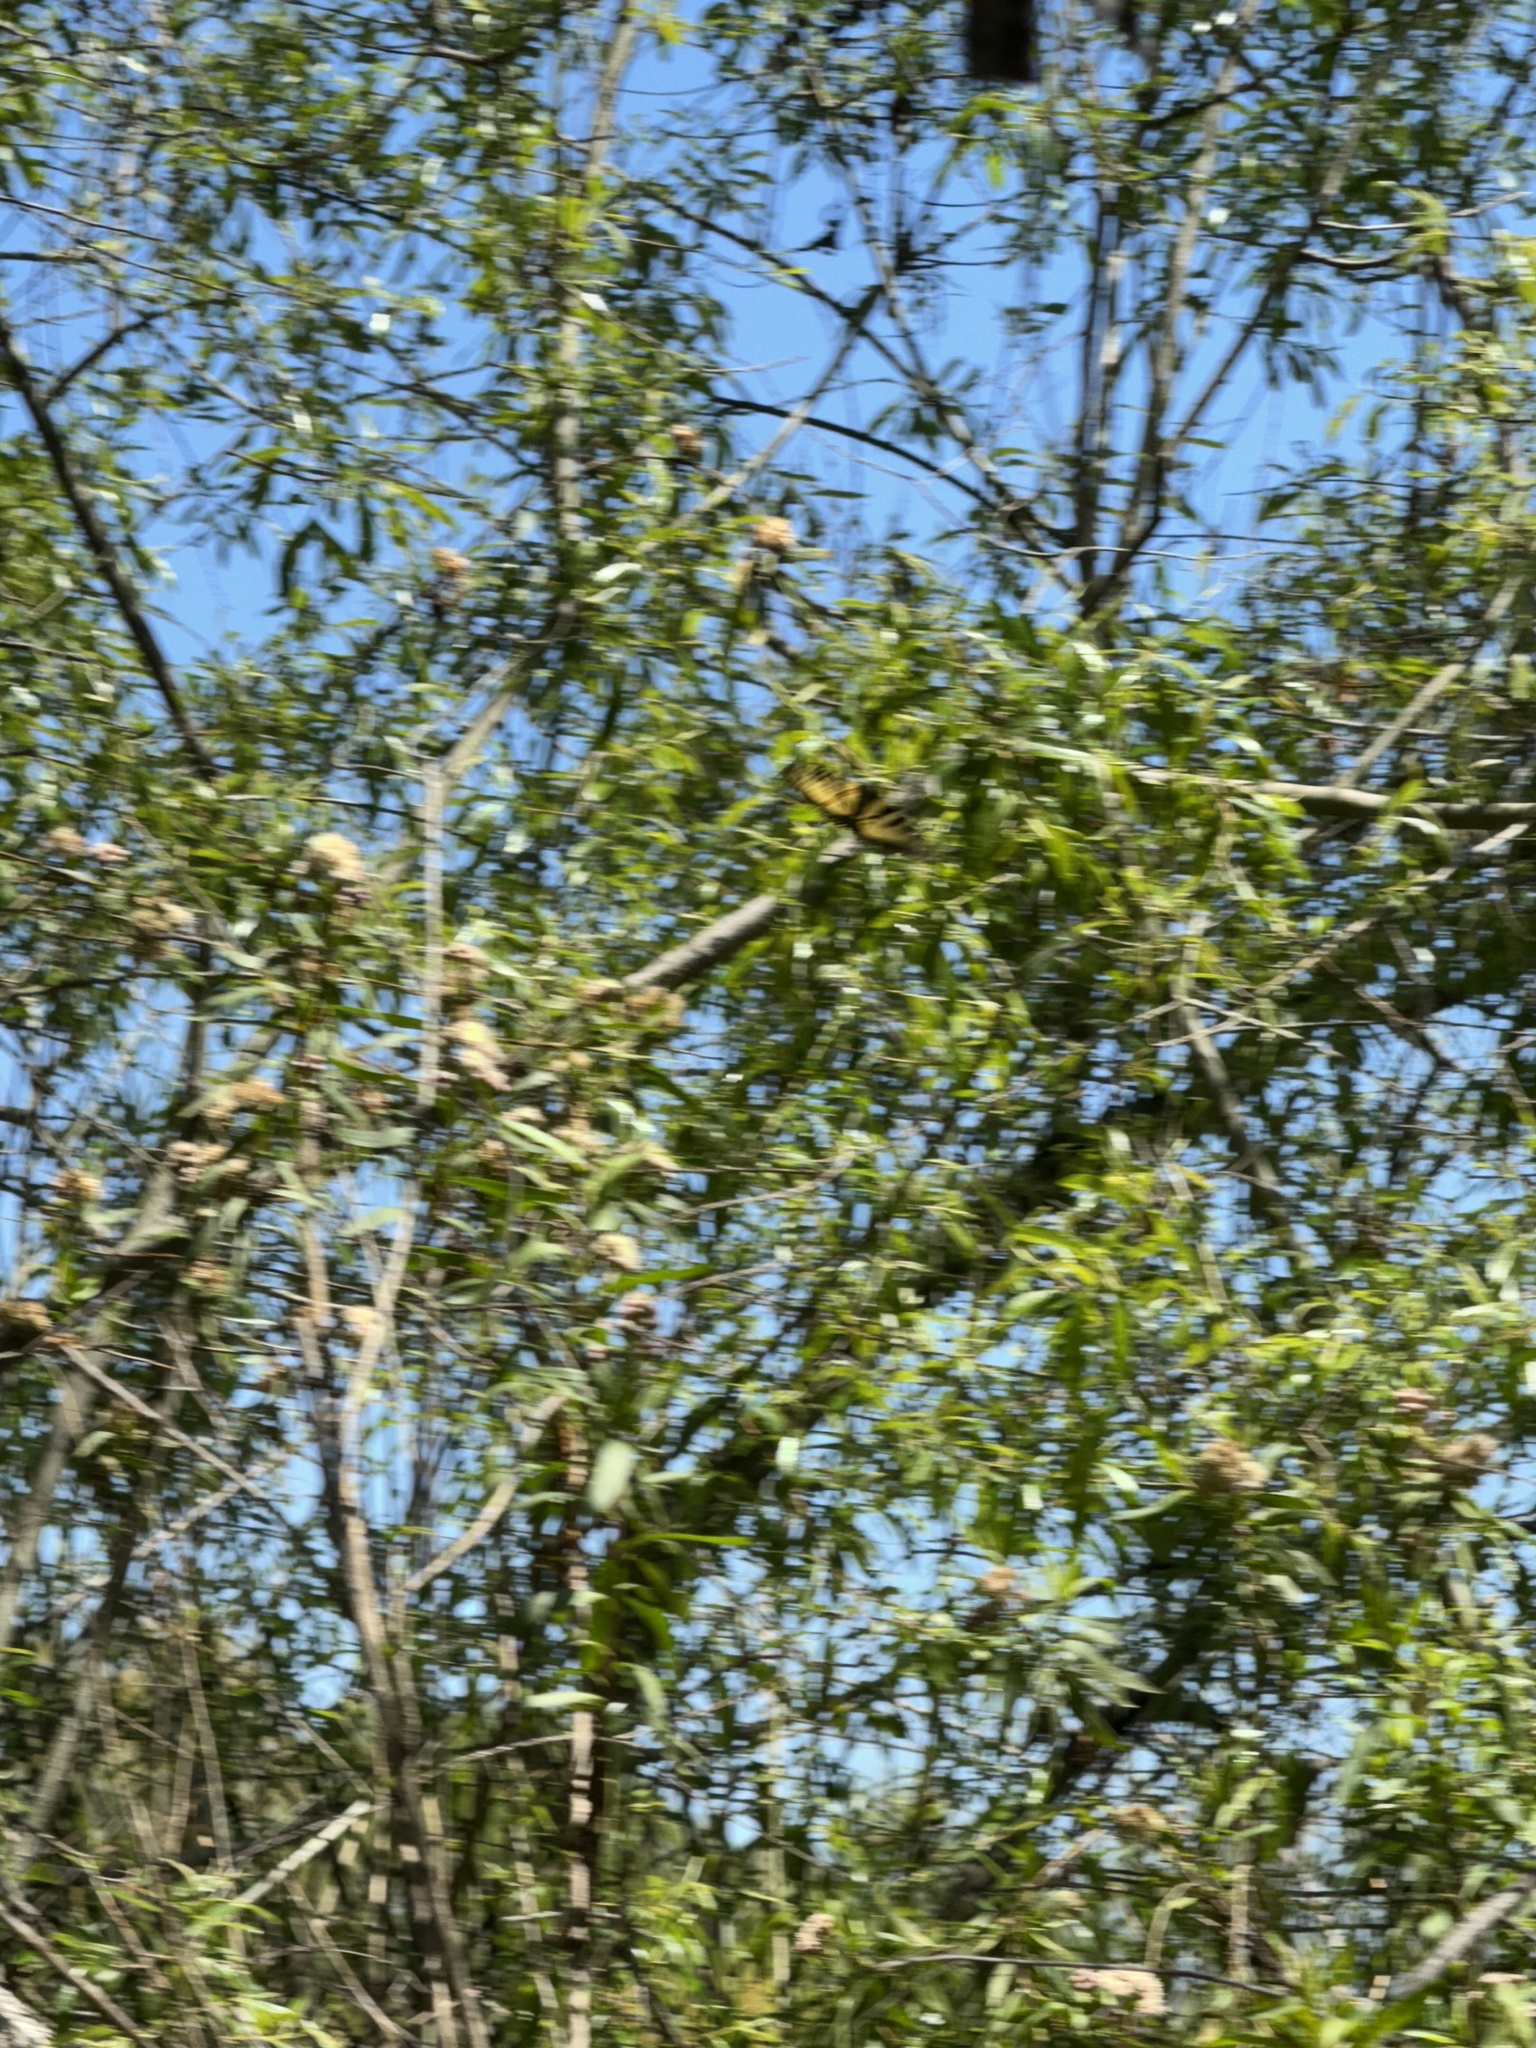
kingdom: Animalia
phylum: Arthropoda
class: Insecta
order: Lepidoptera
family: Papilionidae
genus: Papilio
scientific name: Papilio rutulus
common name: Western tiger swallowtail
